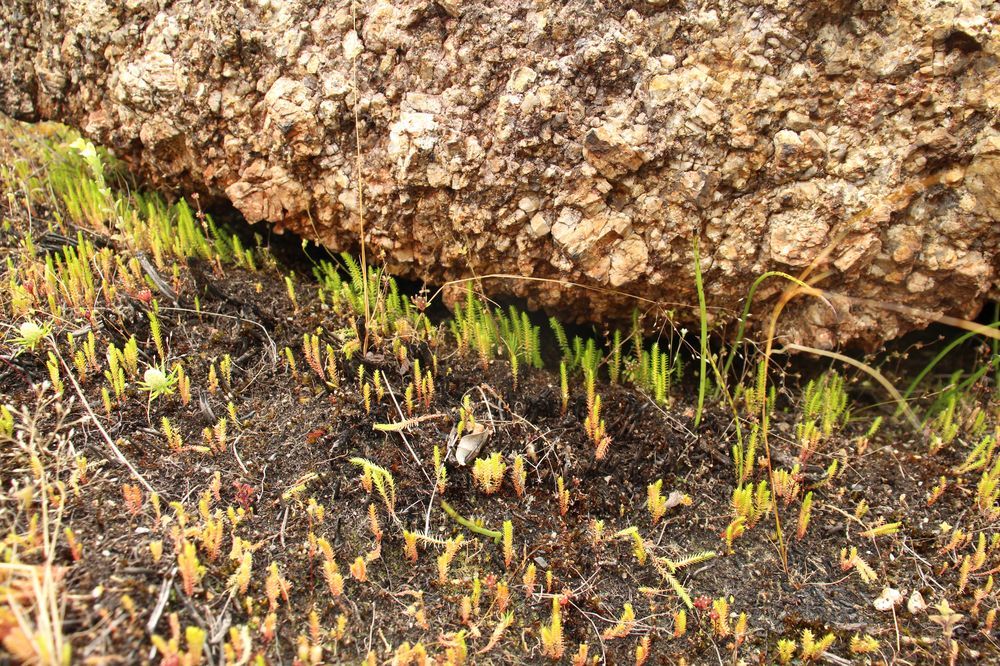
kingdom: Plantae
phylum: Tracheophyta
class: Lycopodiopsida
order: Selaginellales
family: Selaginellaceae
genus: Selaginella
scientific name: Selaginella gracillima
